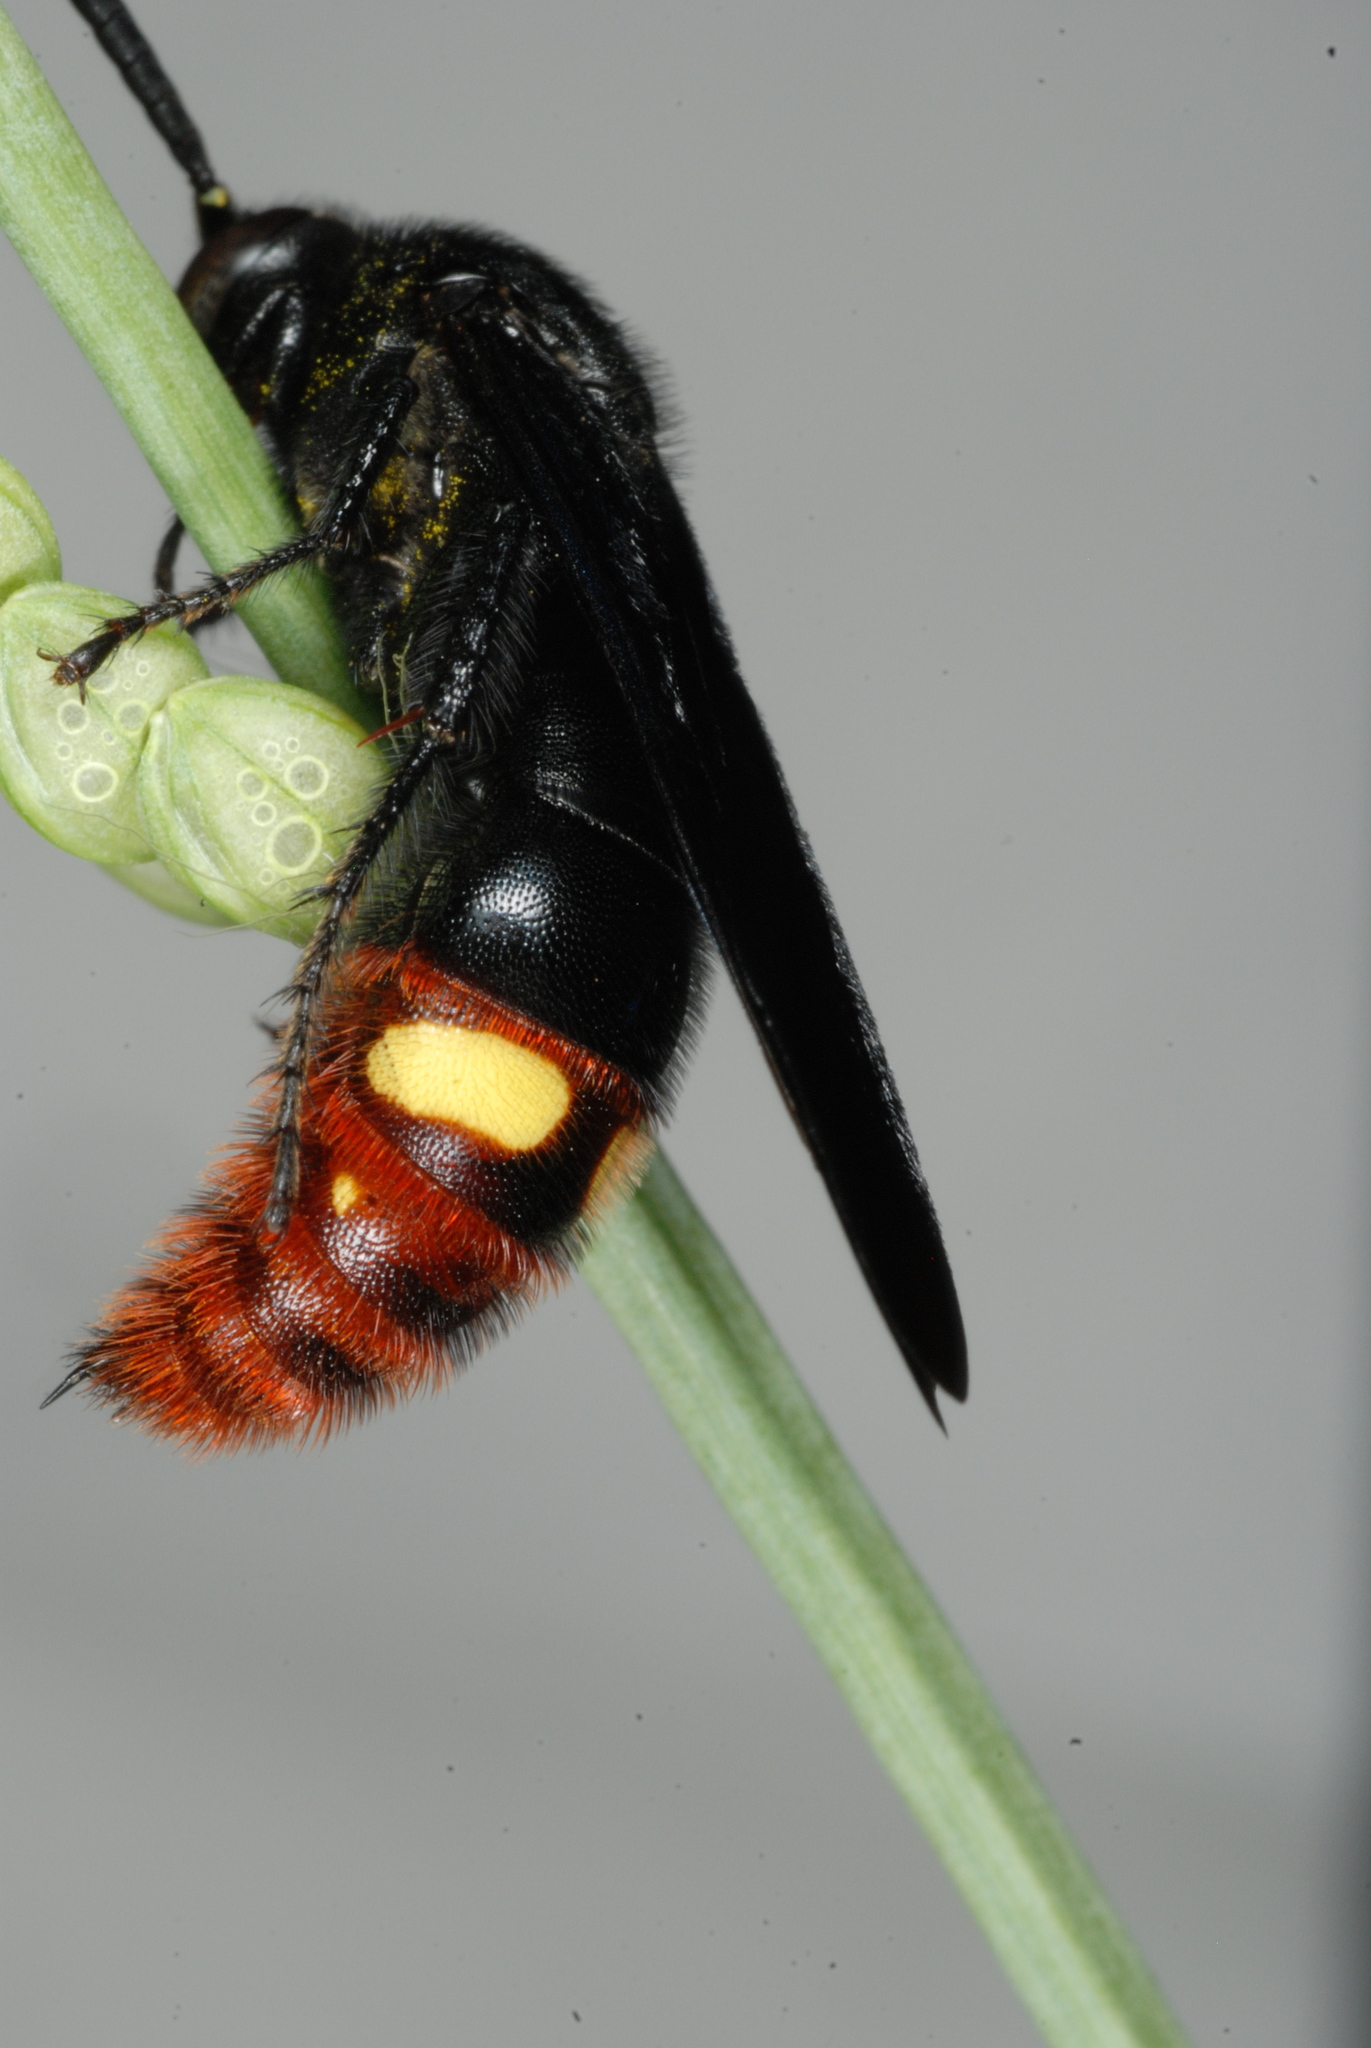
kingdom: Animalia
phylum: Arthropoda
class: Insecta
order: Hymenoptera
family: Scoliidae
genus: Scolia
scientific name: Scolia dubia
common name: Blue-winged scoliid wasp
